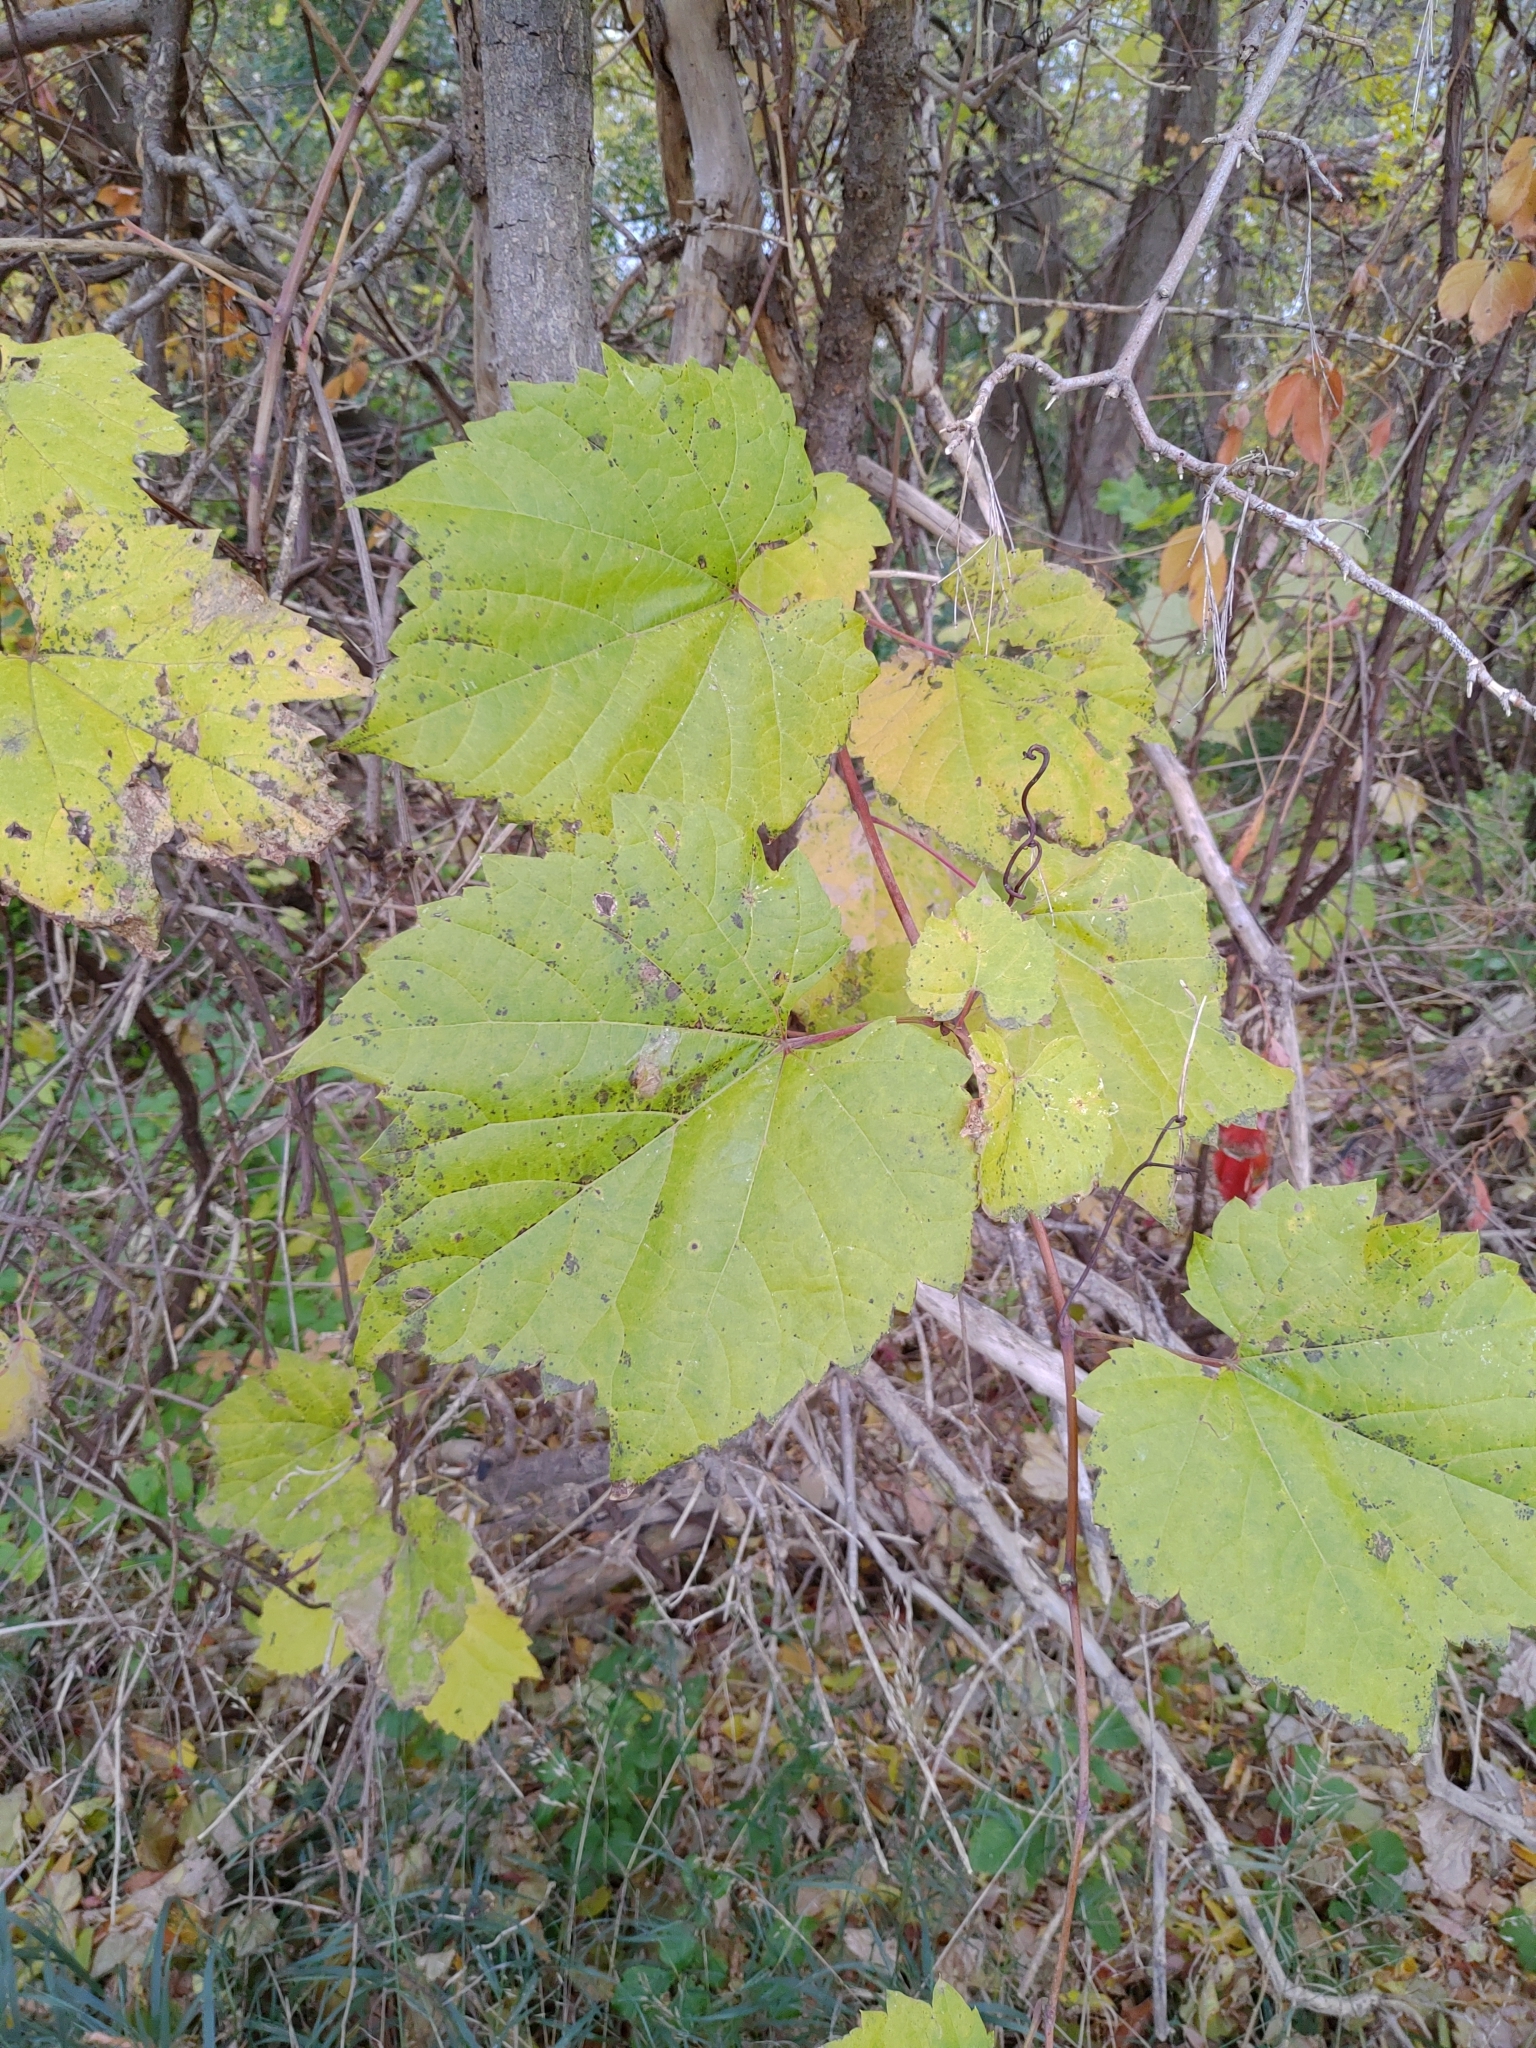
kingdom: Plantae
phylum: Tracheophyta
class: Magnoliopsida
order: Vitales
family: Vitaceae
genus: Vitis
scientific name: Vitis riparia
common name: Frost grape
